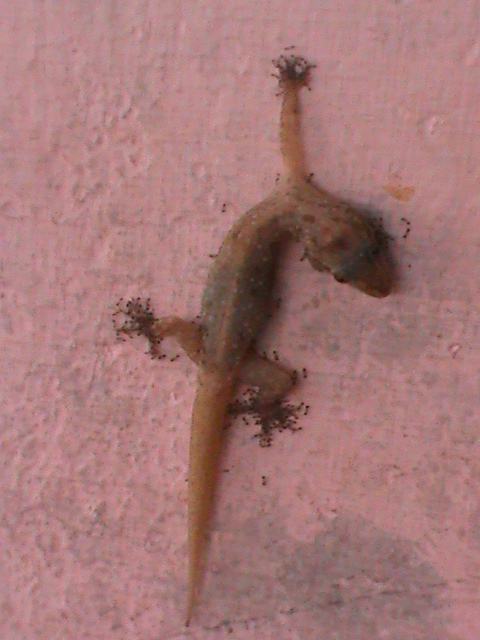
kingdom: Animalia
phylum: Chordata
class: Squamata
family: Gekkonidae
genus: Hemidactylus
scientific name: Hemidactylus frenatus
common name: Common house gecko
